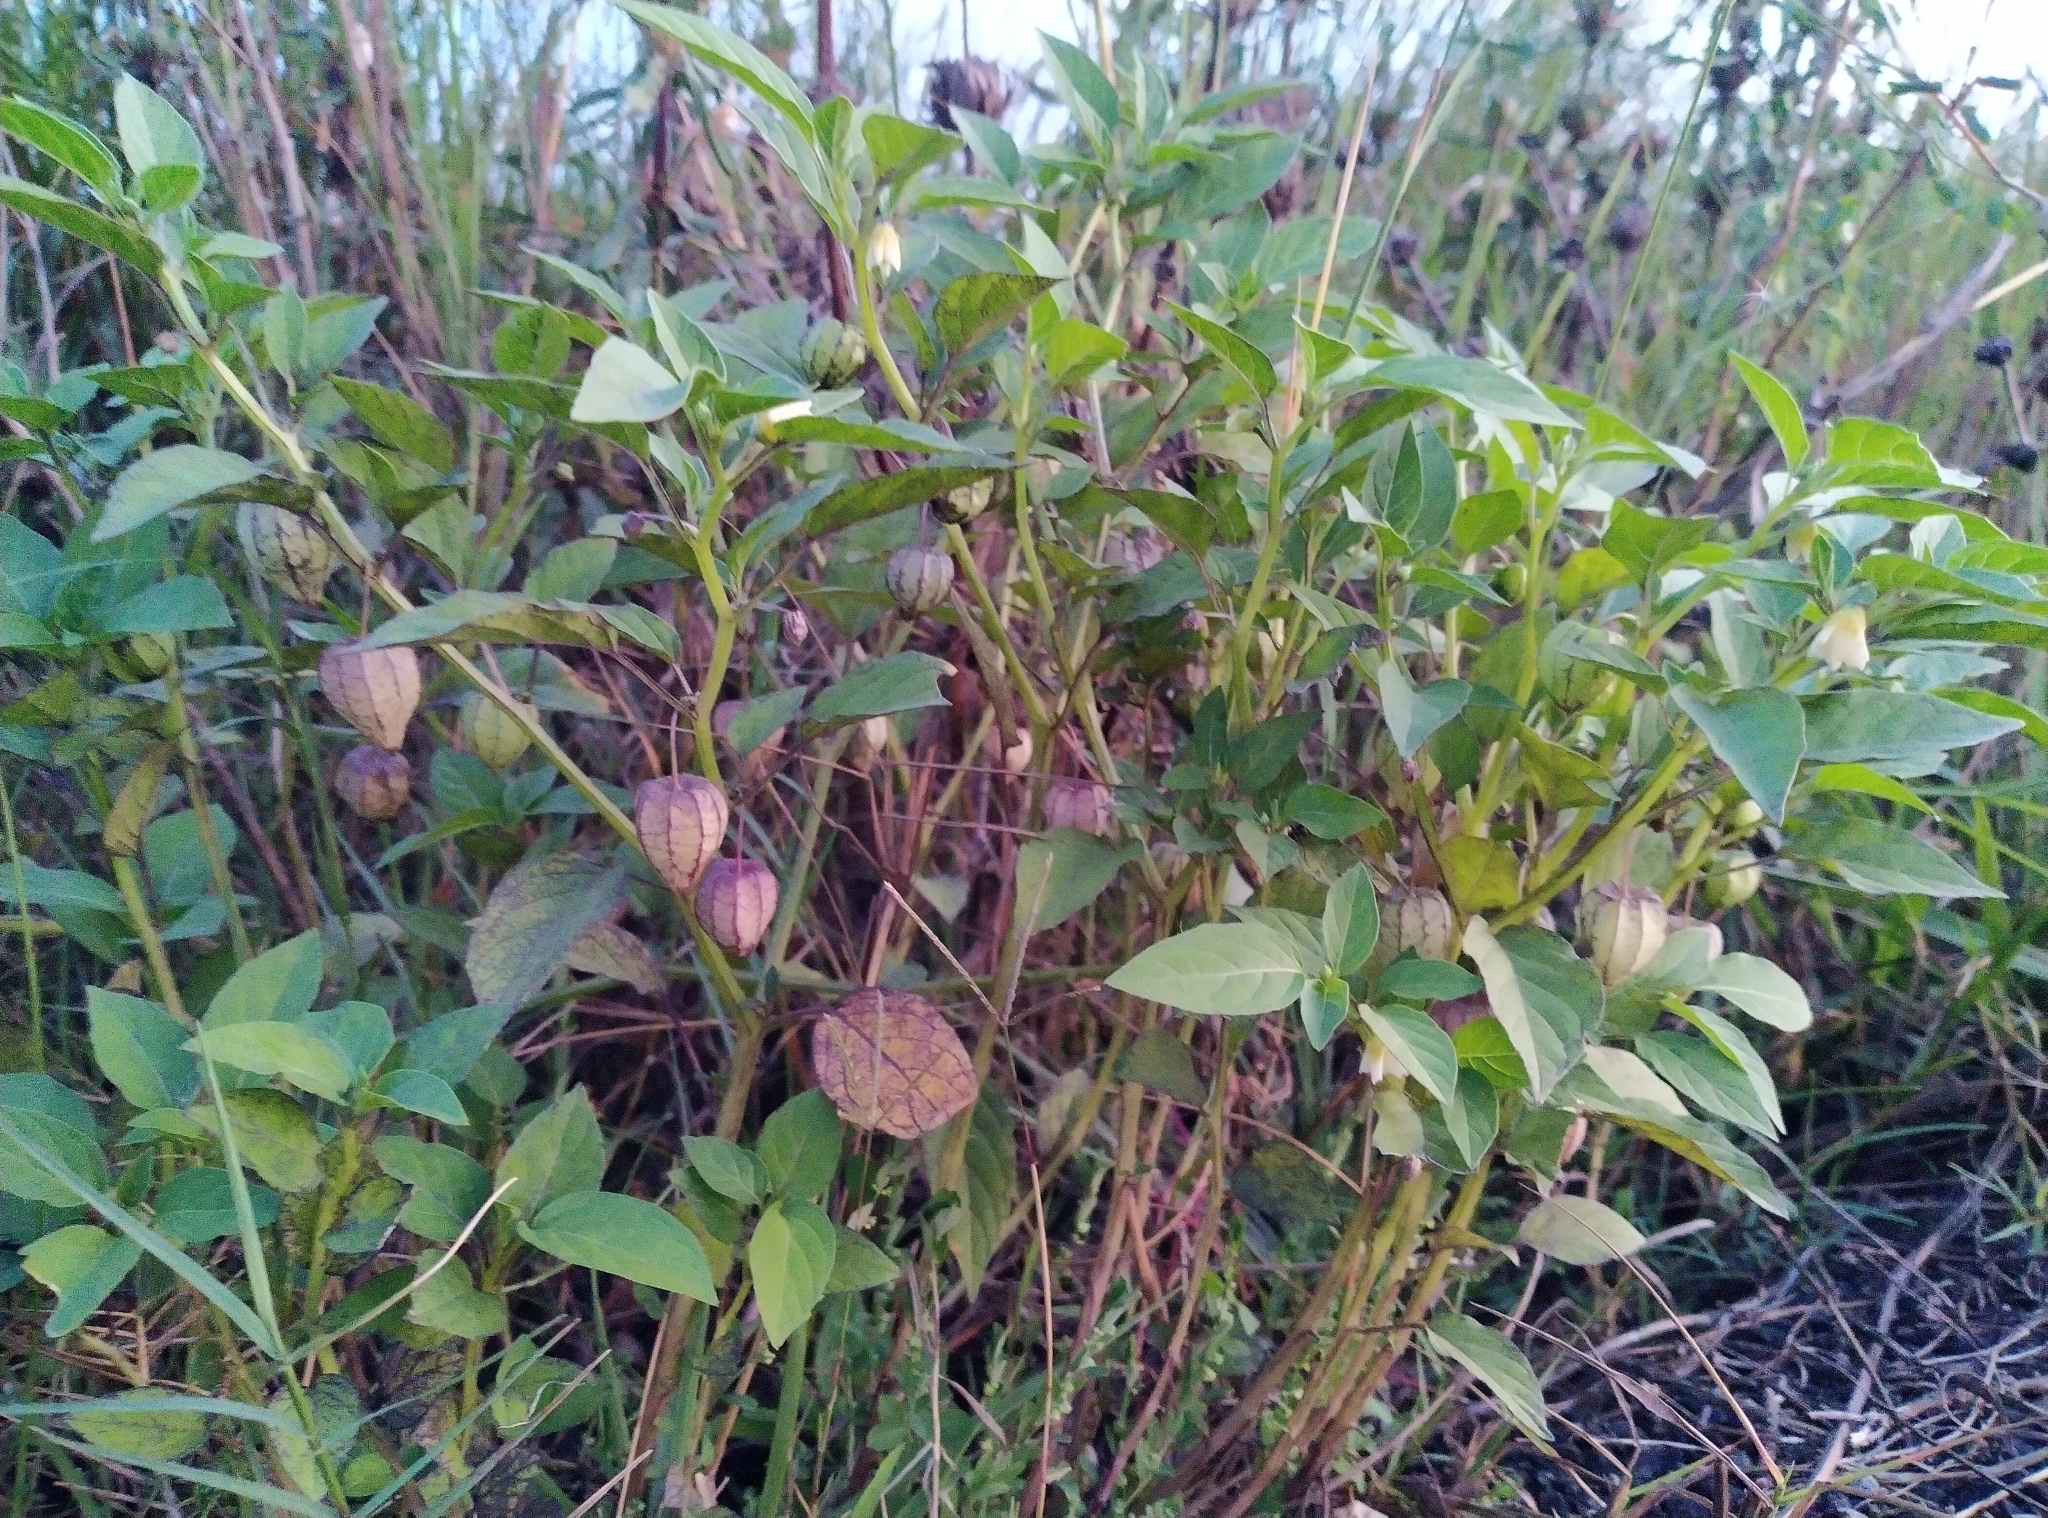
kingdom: Plantae
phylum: Tracheophyta
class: Magnoliopsida
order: Solanales
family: Solanaceae
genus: Physalis
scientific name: Physalis angulata
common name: Angular winter-cherry
